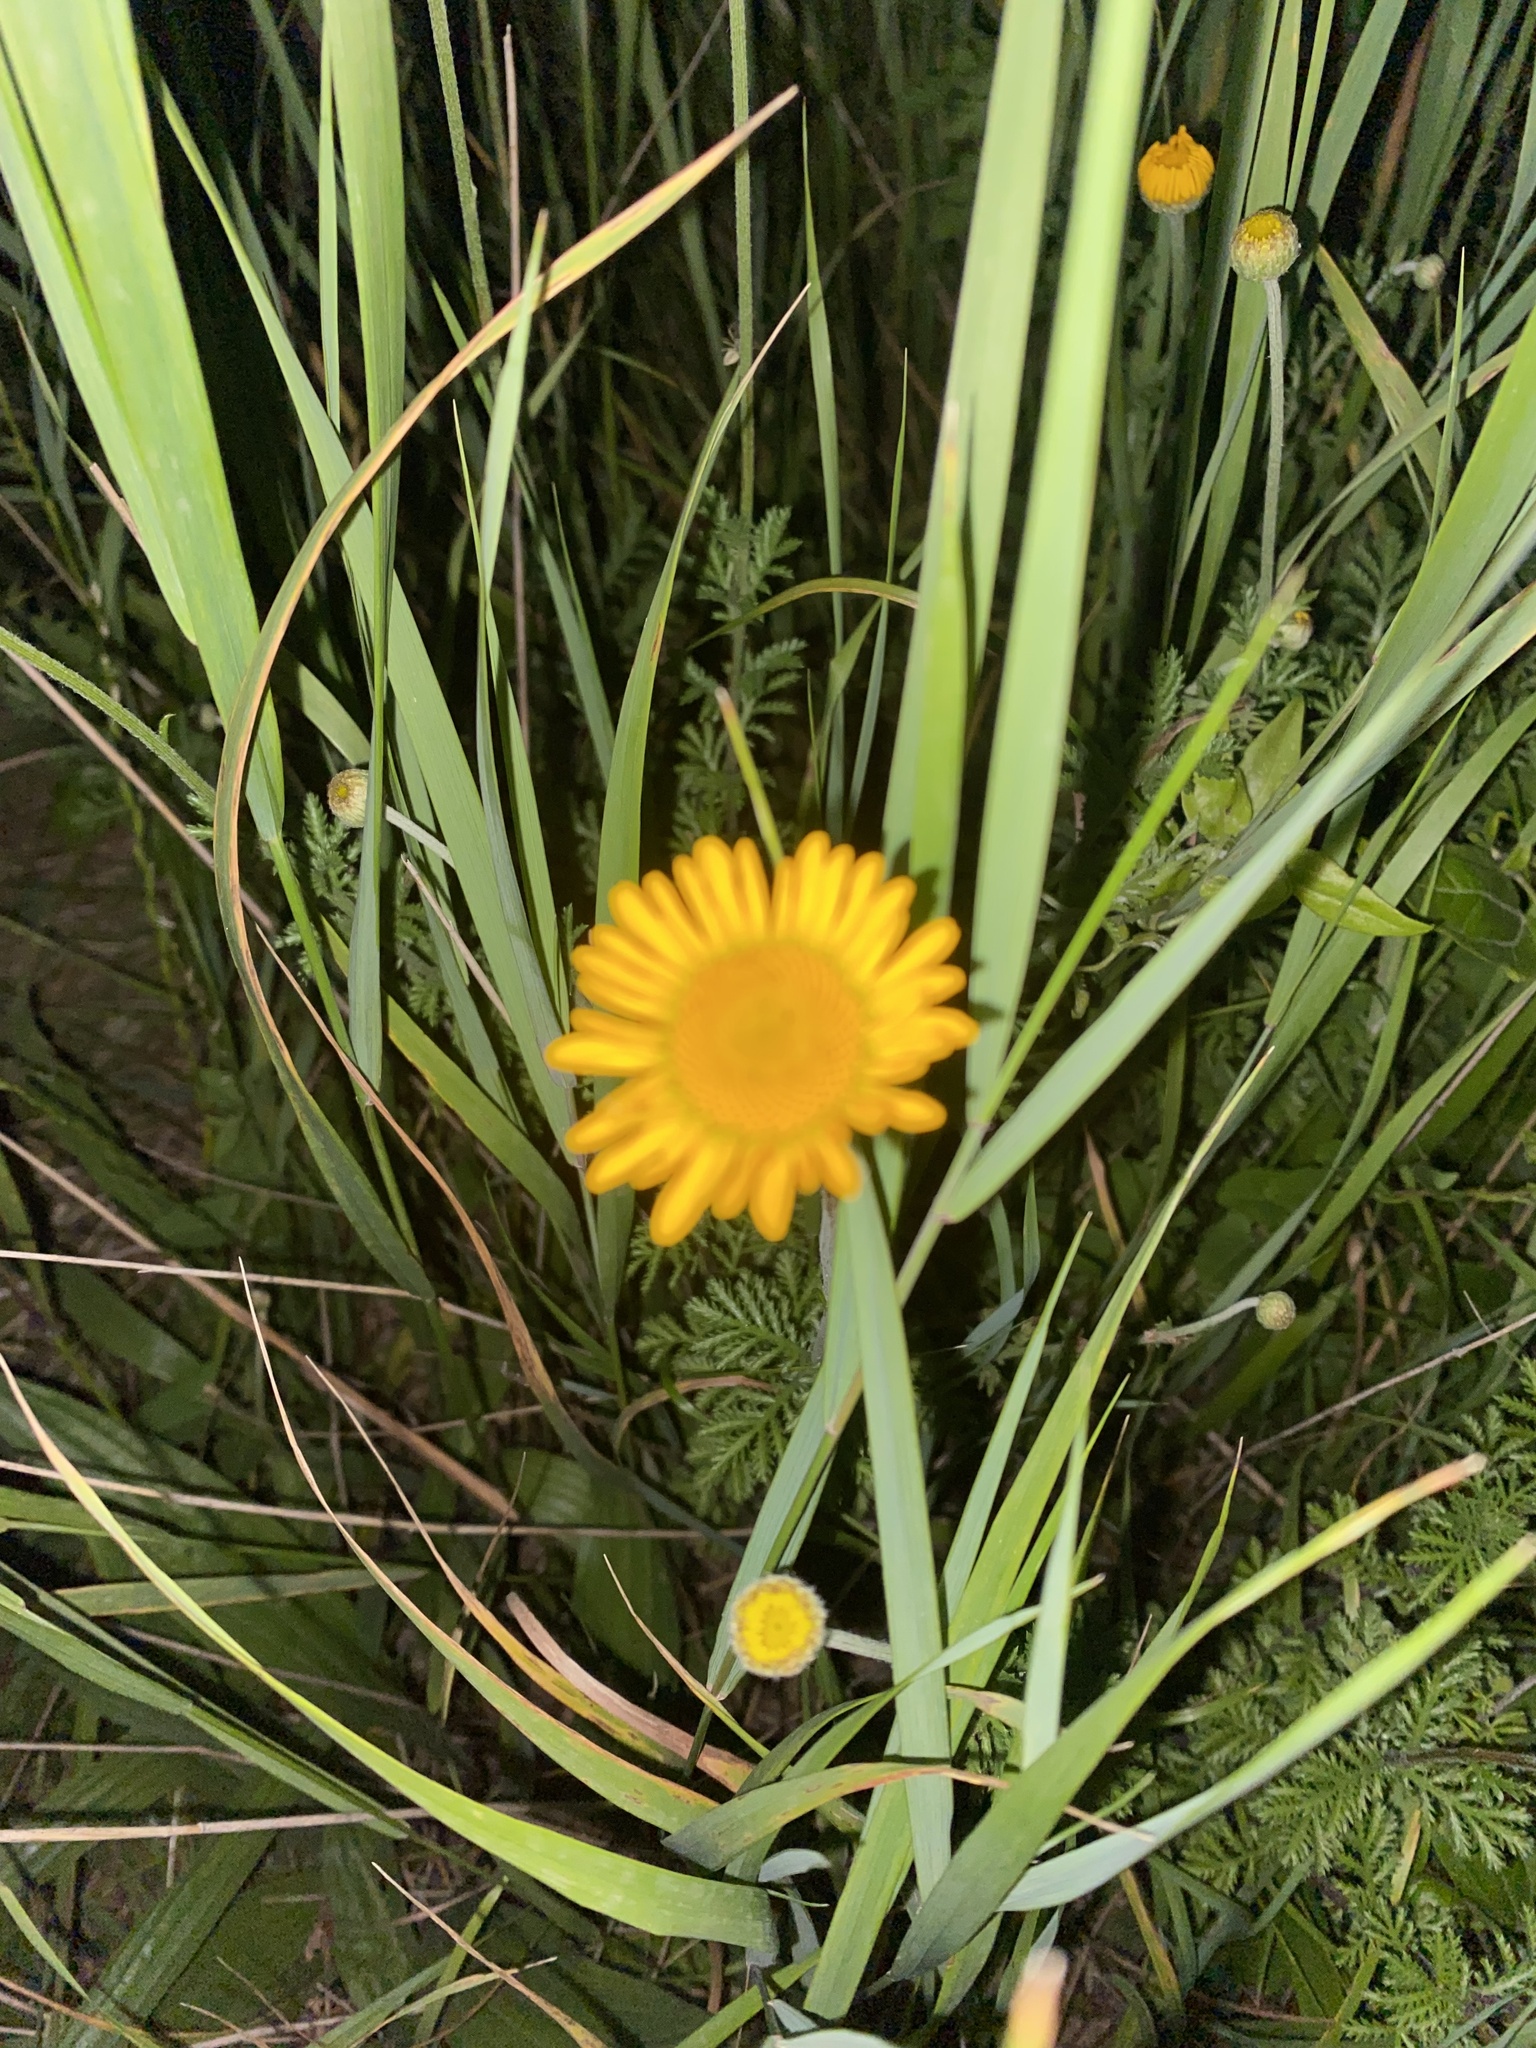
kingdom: Plantae
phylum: Tracheophyta
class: Magnoliopsida
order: Asterales
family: Asteraceae
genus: Cota
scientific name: Cota tinctoria
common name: Golden chamomile
